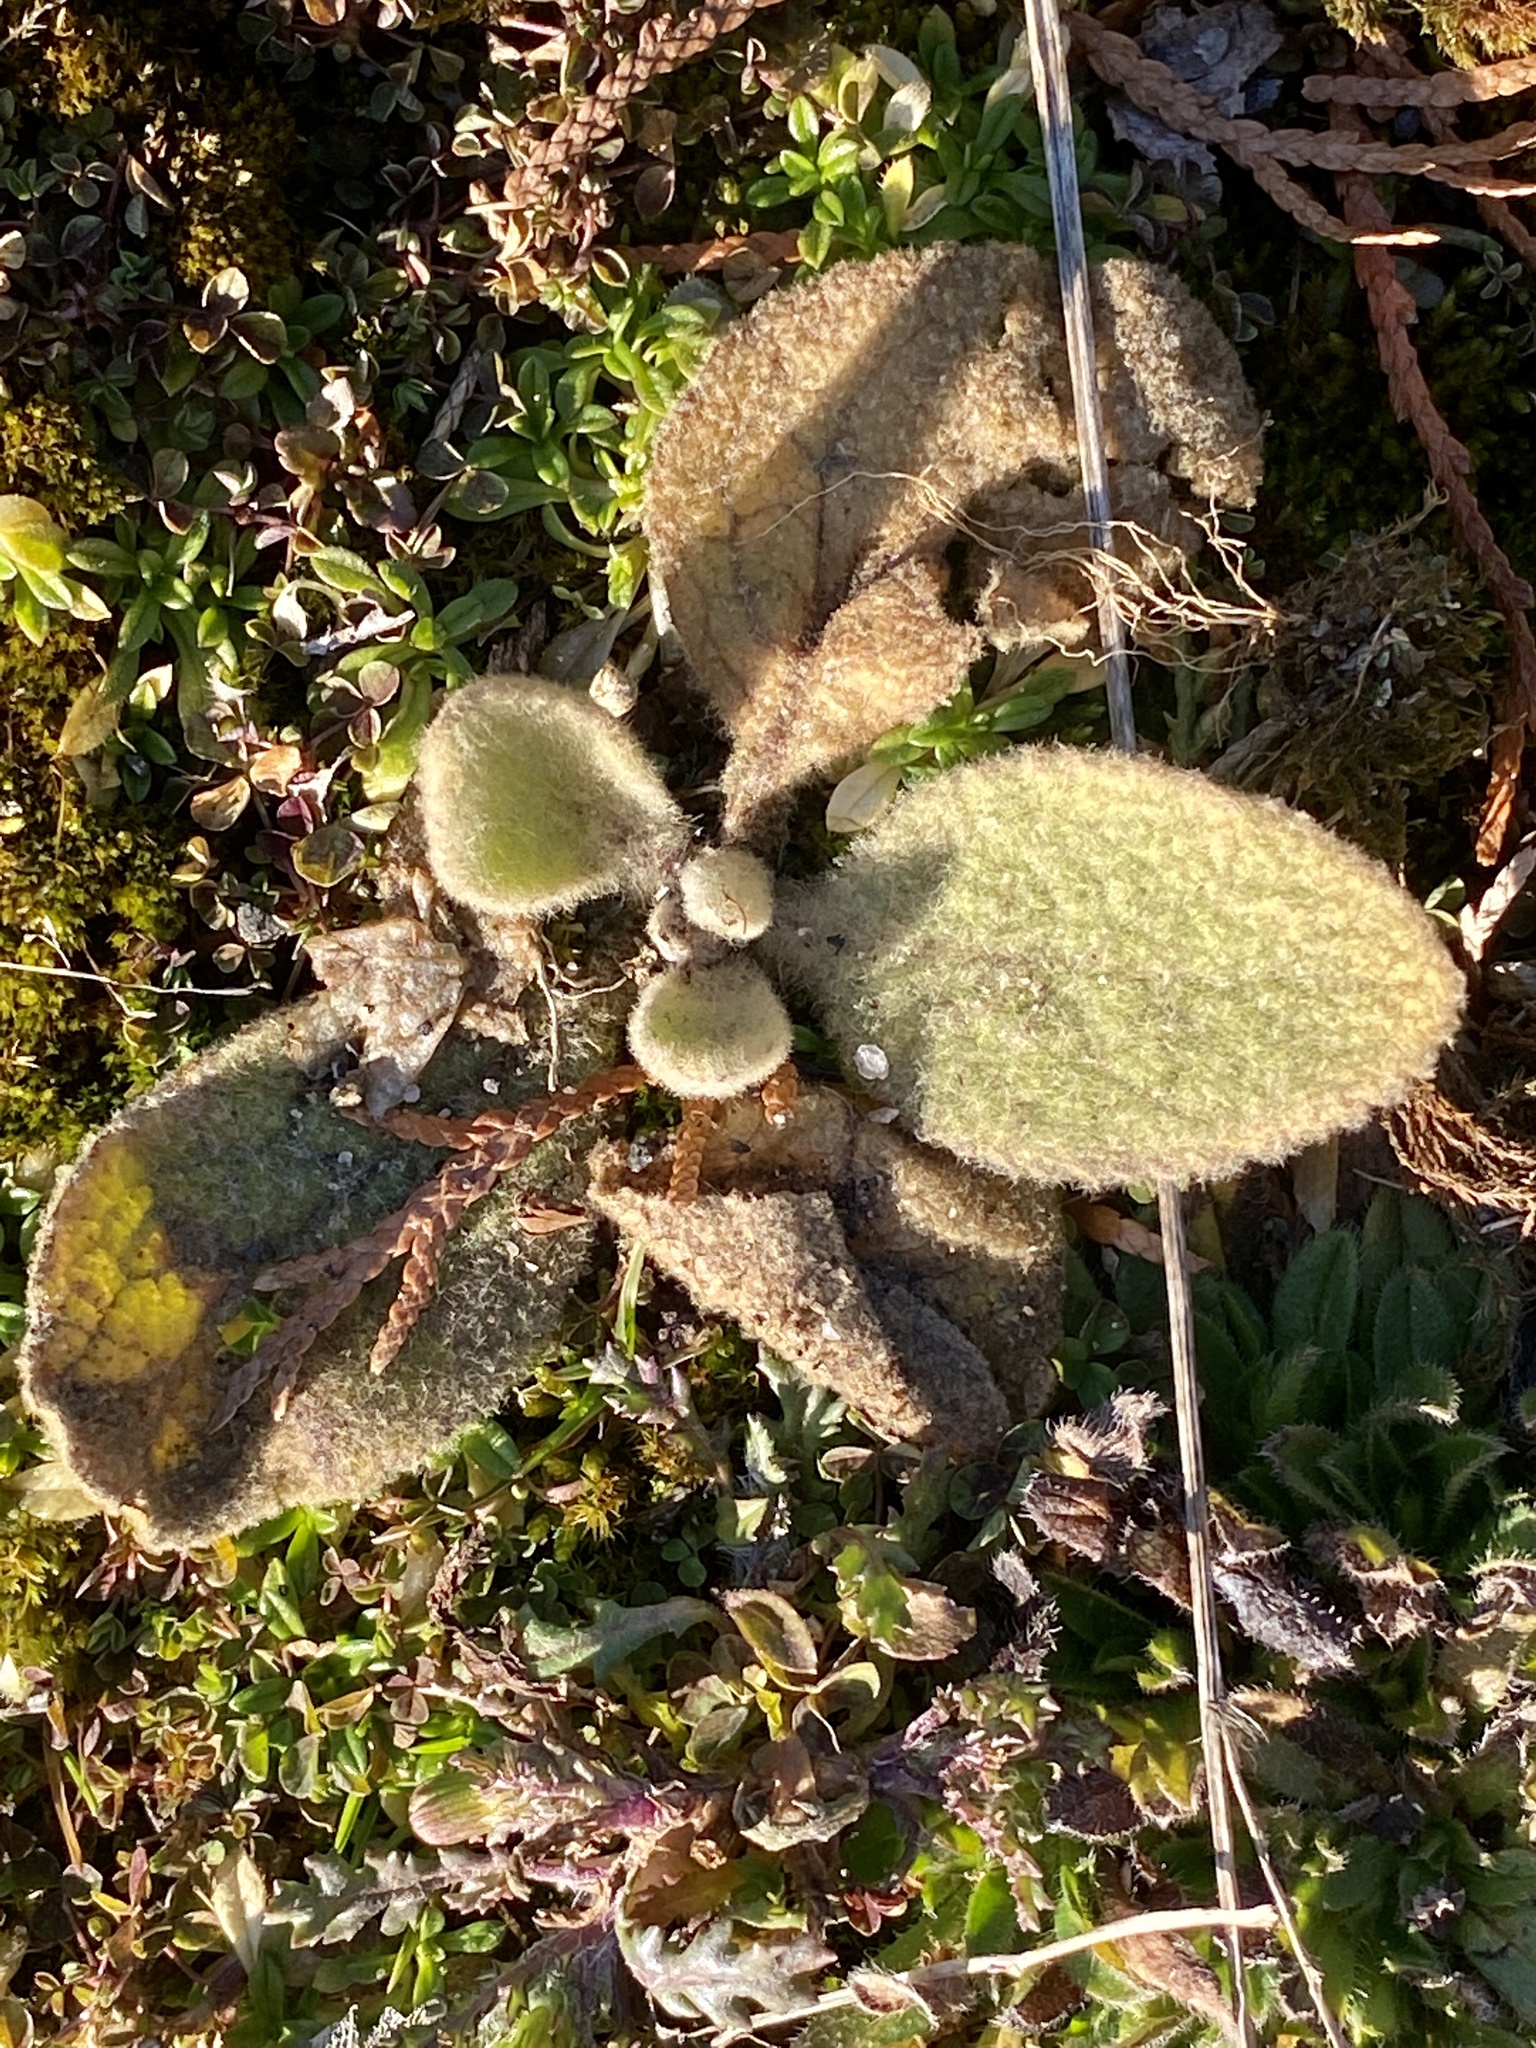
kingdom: Plantae
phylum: Tracheophyta
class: Magnoliopsida
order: Lamiales
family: Scrophulariaceae
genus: Verbascum
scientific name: Verbascum thapsus
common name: Common mullein
